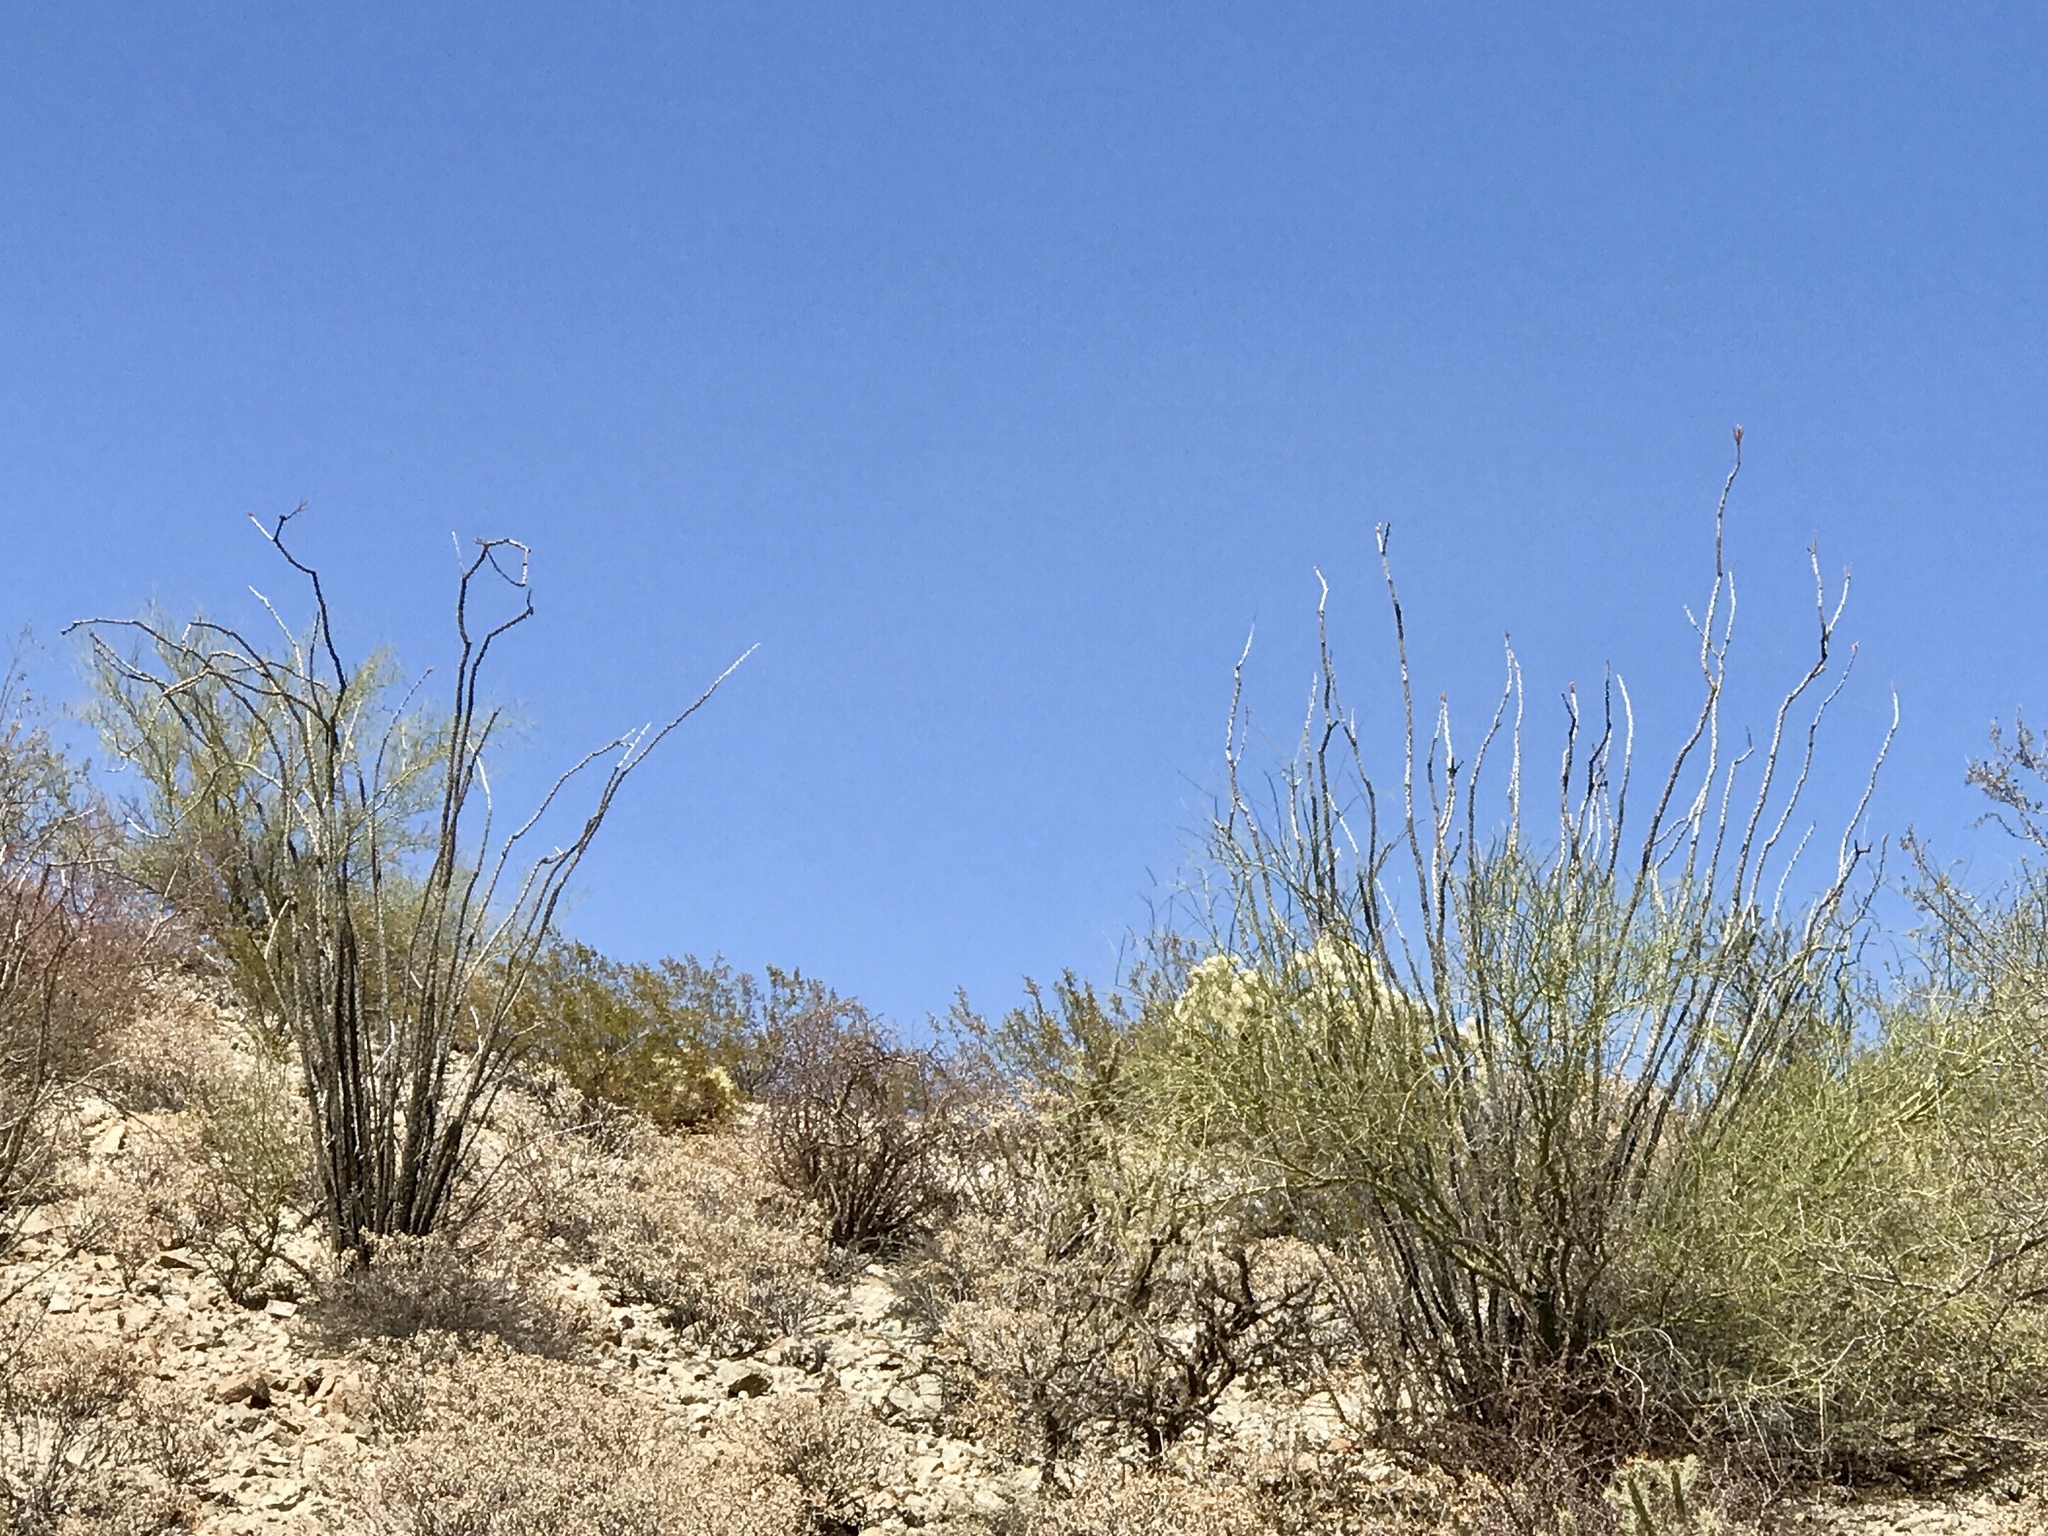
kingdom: Plantae
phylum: Tracheophyta
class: Magnoliopsida
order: Ericales
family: Fouquieriaceae
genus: Fouquieria
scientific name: Fouquieria splendens
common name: Vine-cactus
